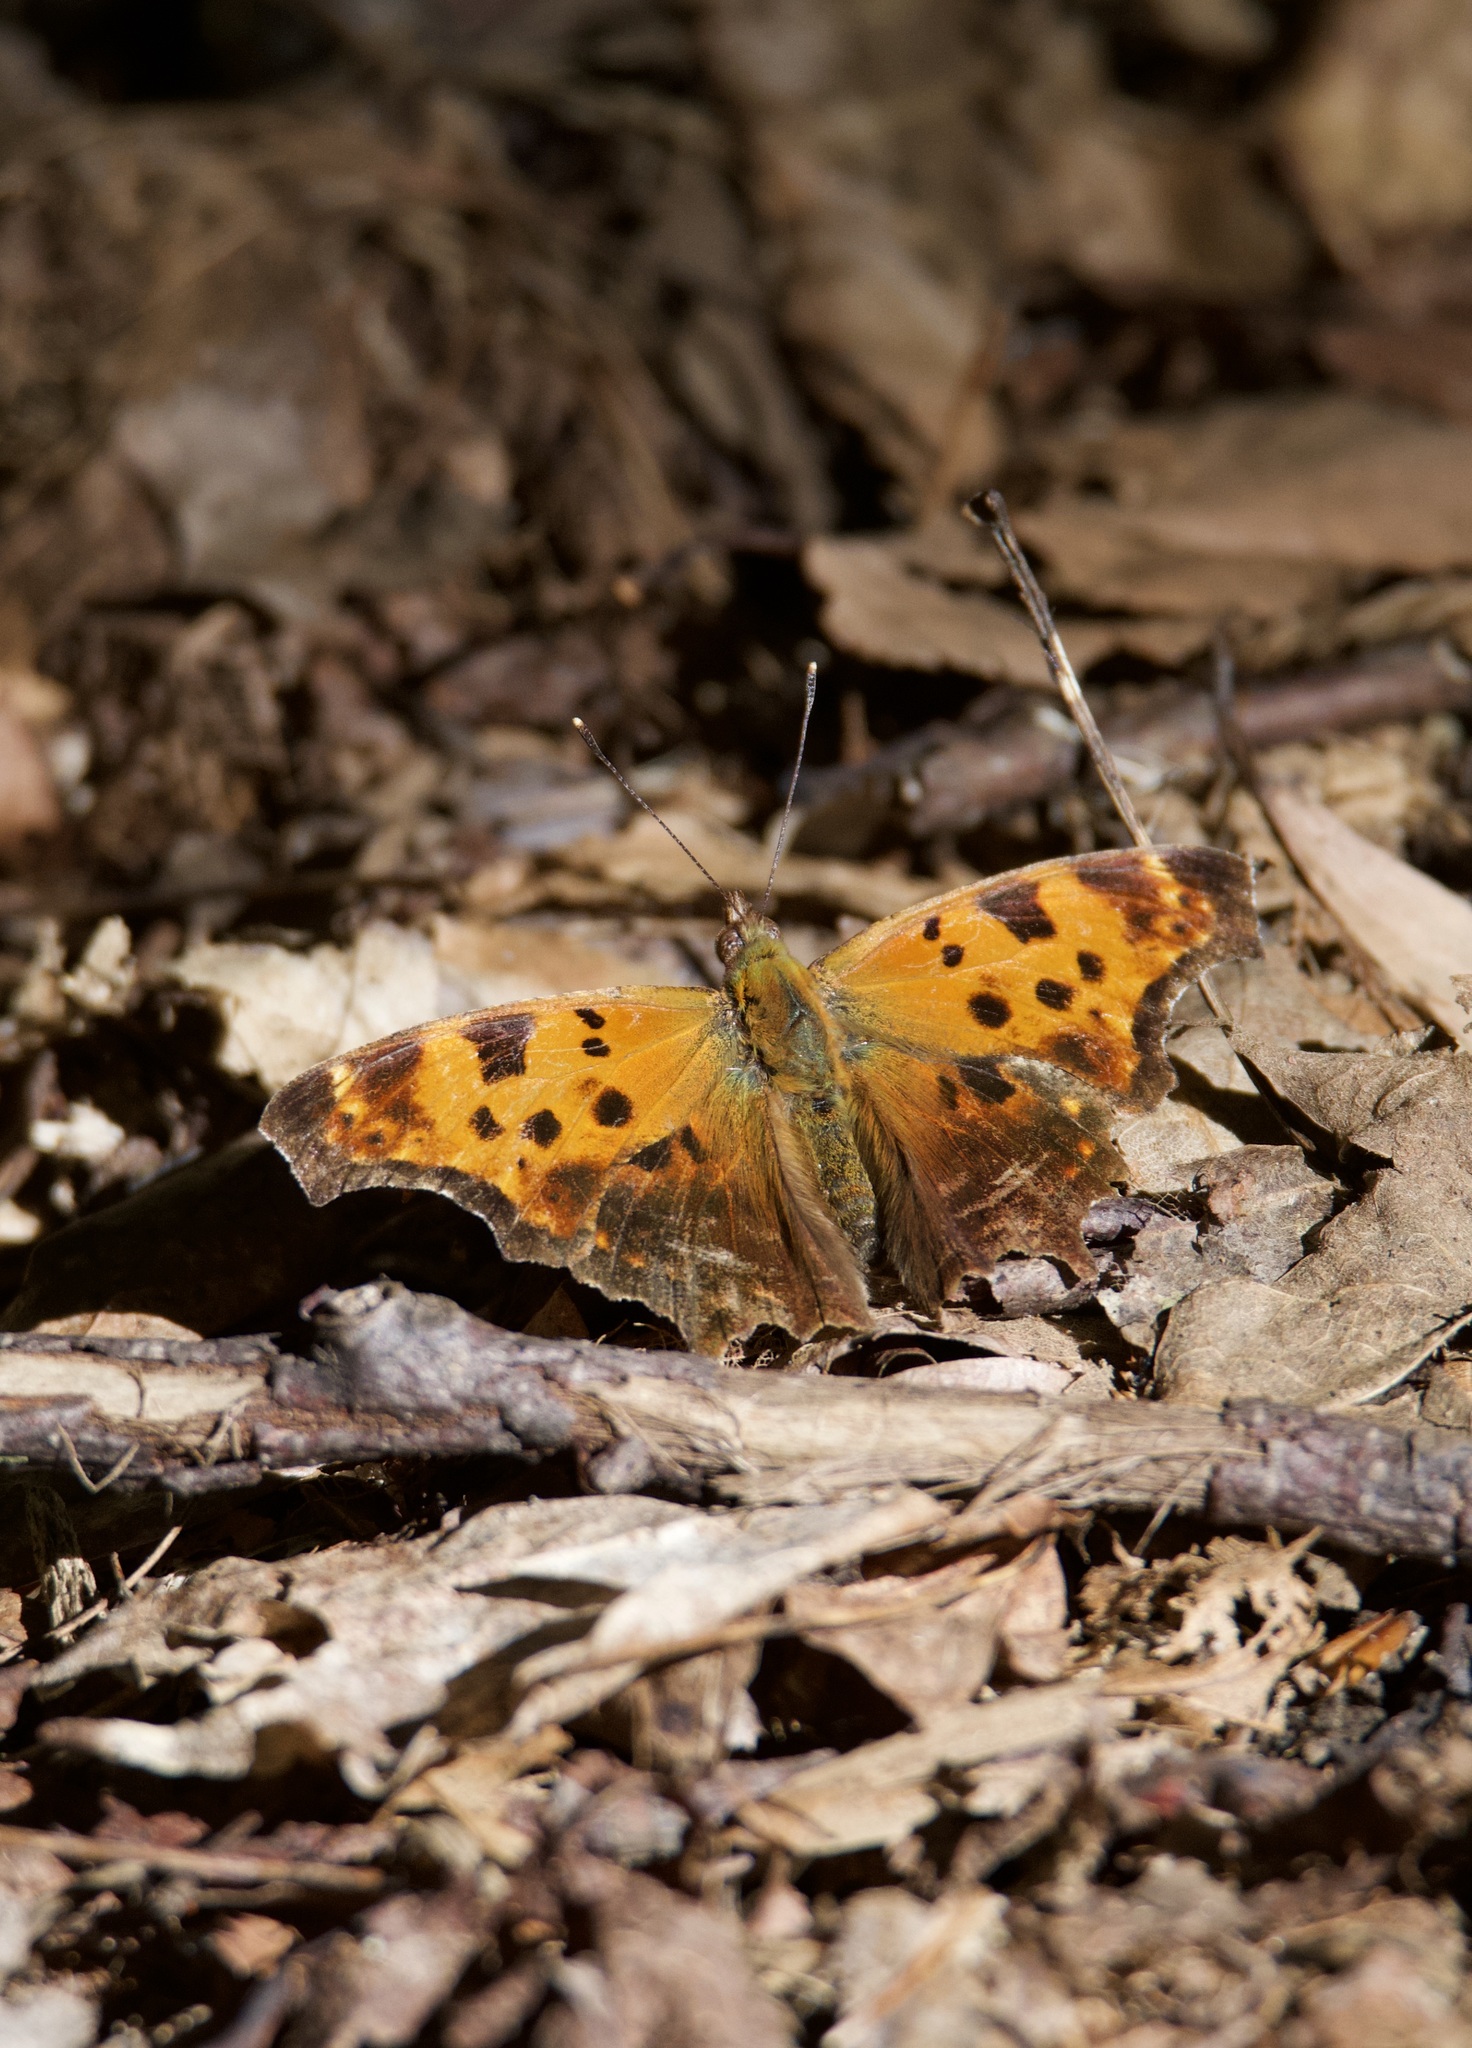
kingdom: Animalia
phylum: Arthropoda
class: Insecta
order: Lepidoptera
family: Nymphalidae
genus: Polygonia
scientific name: Polygonia comma
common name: Eastern comma
